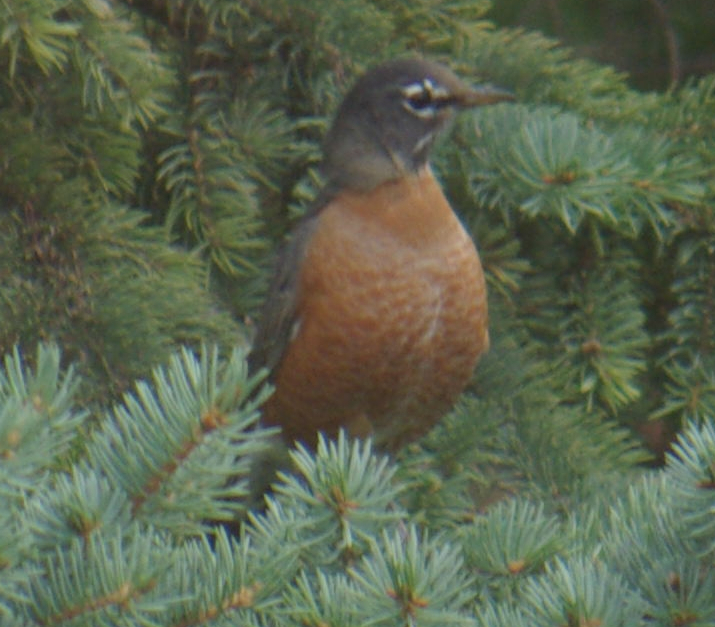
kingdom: Animalia
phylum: Chordata
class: Aves
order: Passeriformes
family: Turdidae
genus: Turdus
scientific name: Turdus migratorius
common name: American robin
